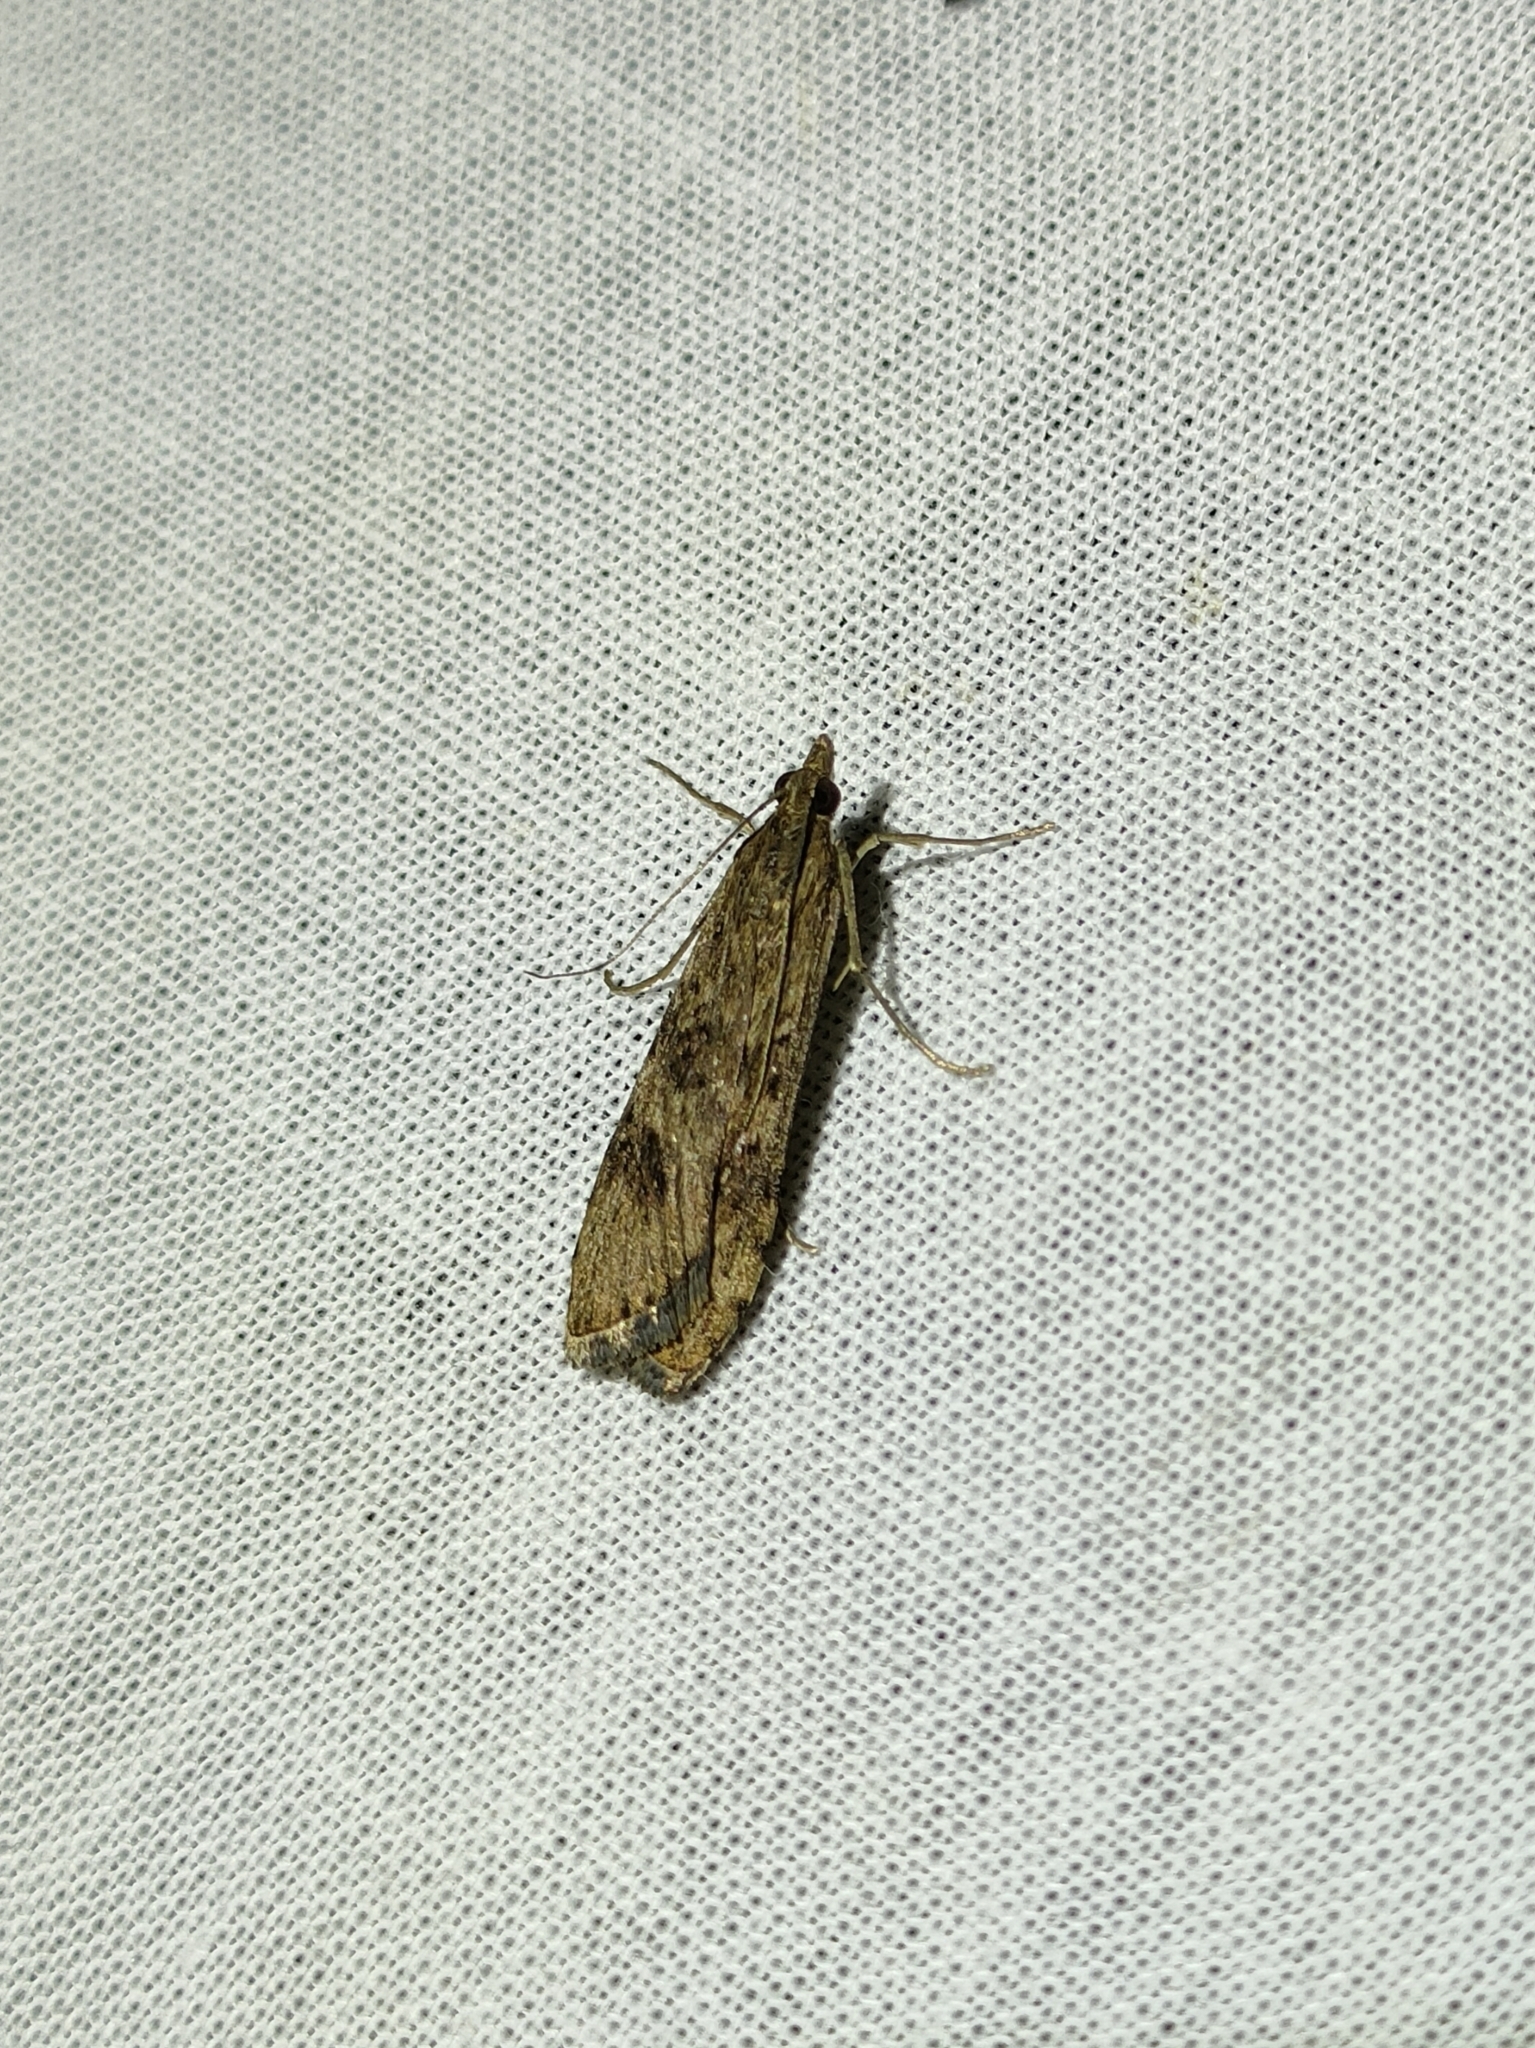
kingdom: Animalia
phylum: Arthropoda
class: Insecta
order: Lepidoptera
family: Crambidae
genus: Nomophila
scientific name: Nomophila noctuella
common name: Rush veneer
